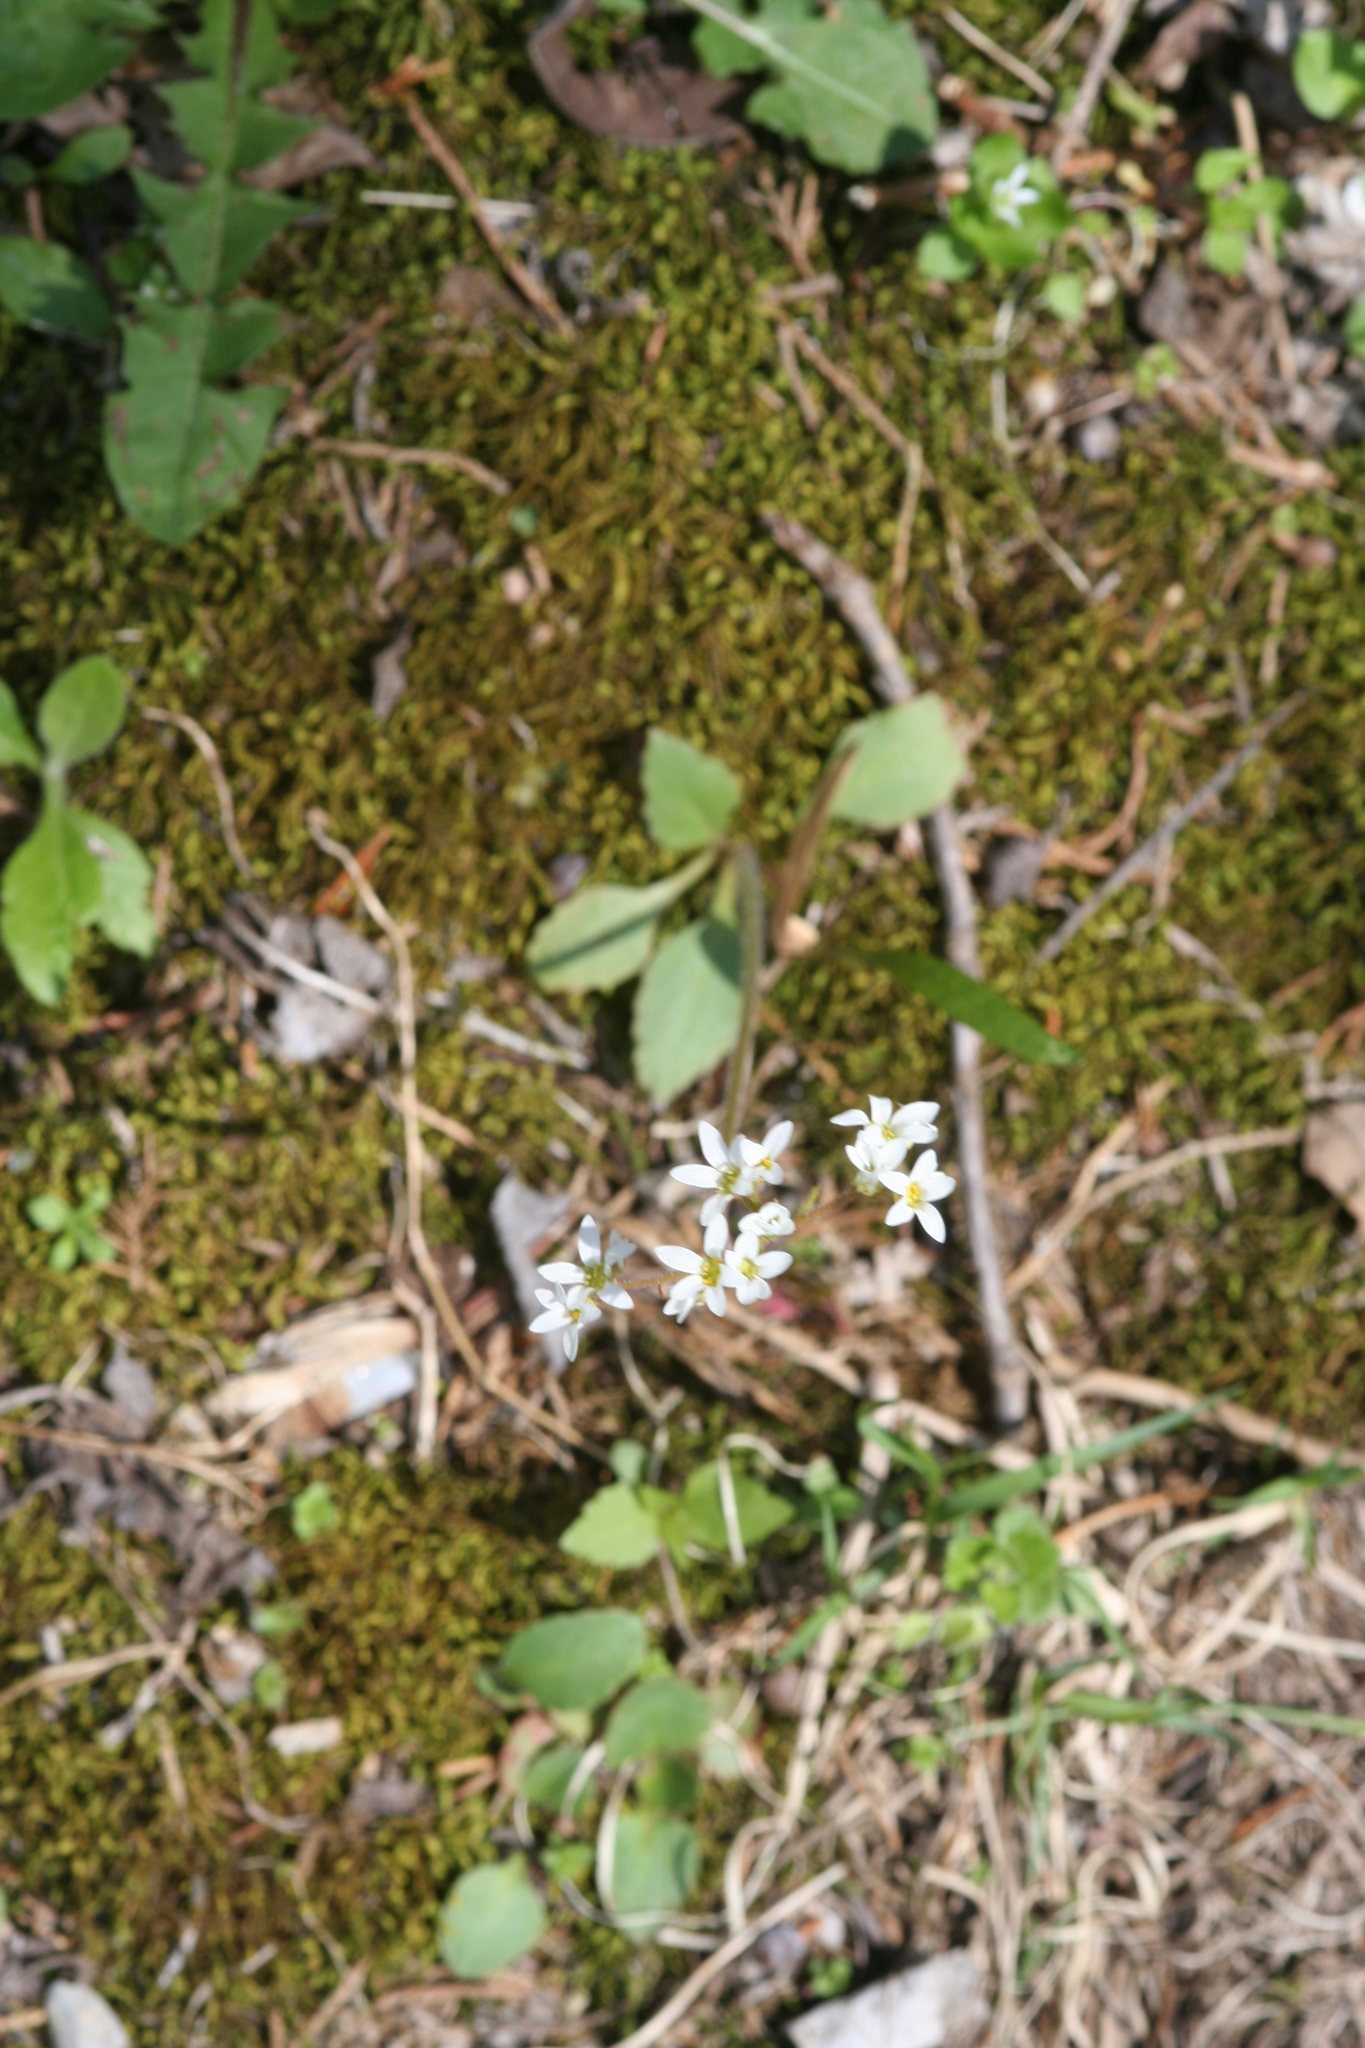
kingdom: Plantae
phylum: Tracheophyta
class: Magnoliopsida
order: Saxifragales
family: Saxifragaceae
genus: Micranthes
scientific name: Micranthes virginiensis
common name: Early saxifrage
